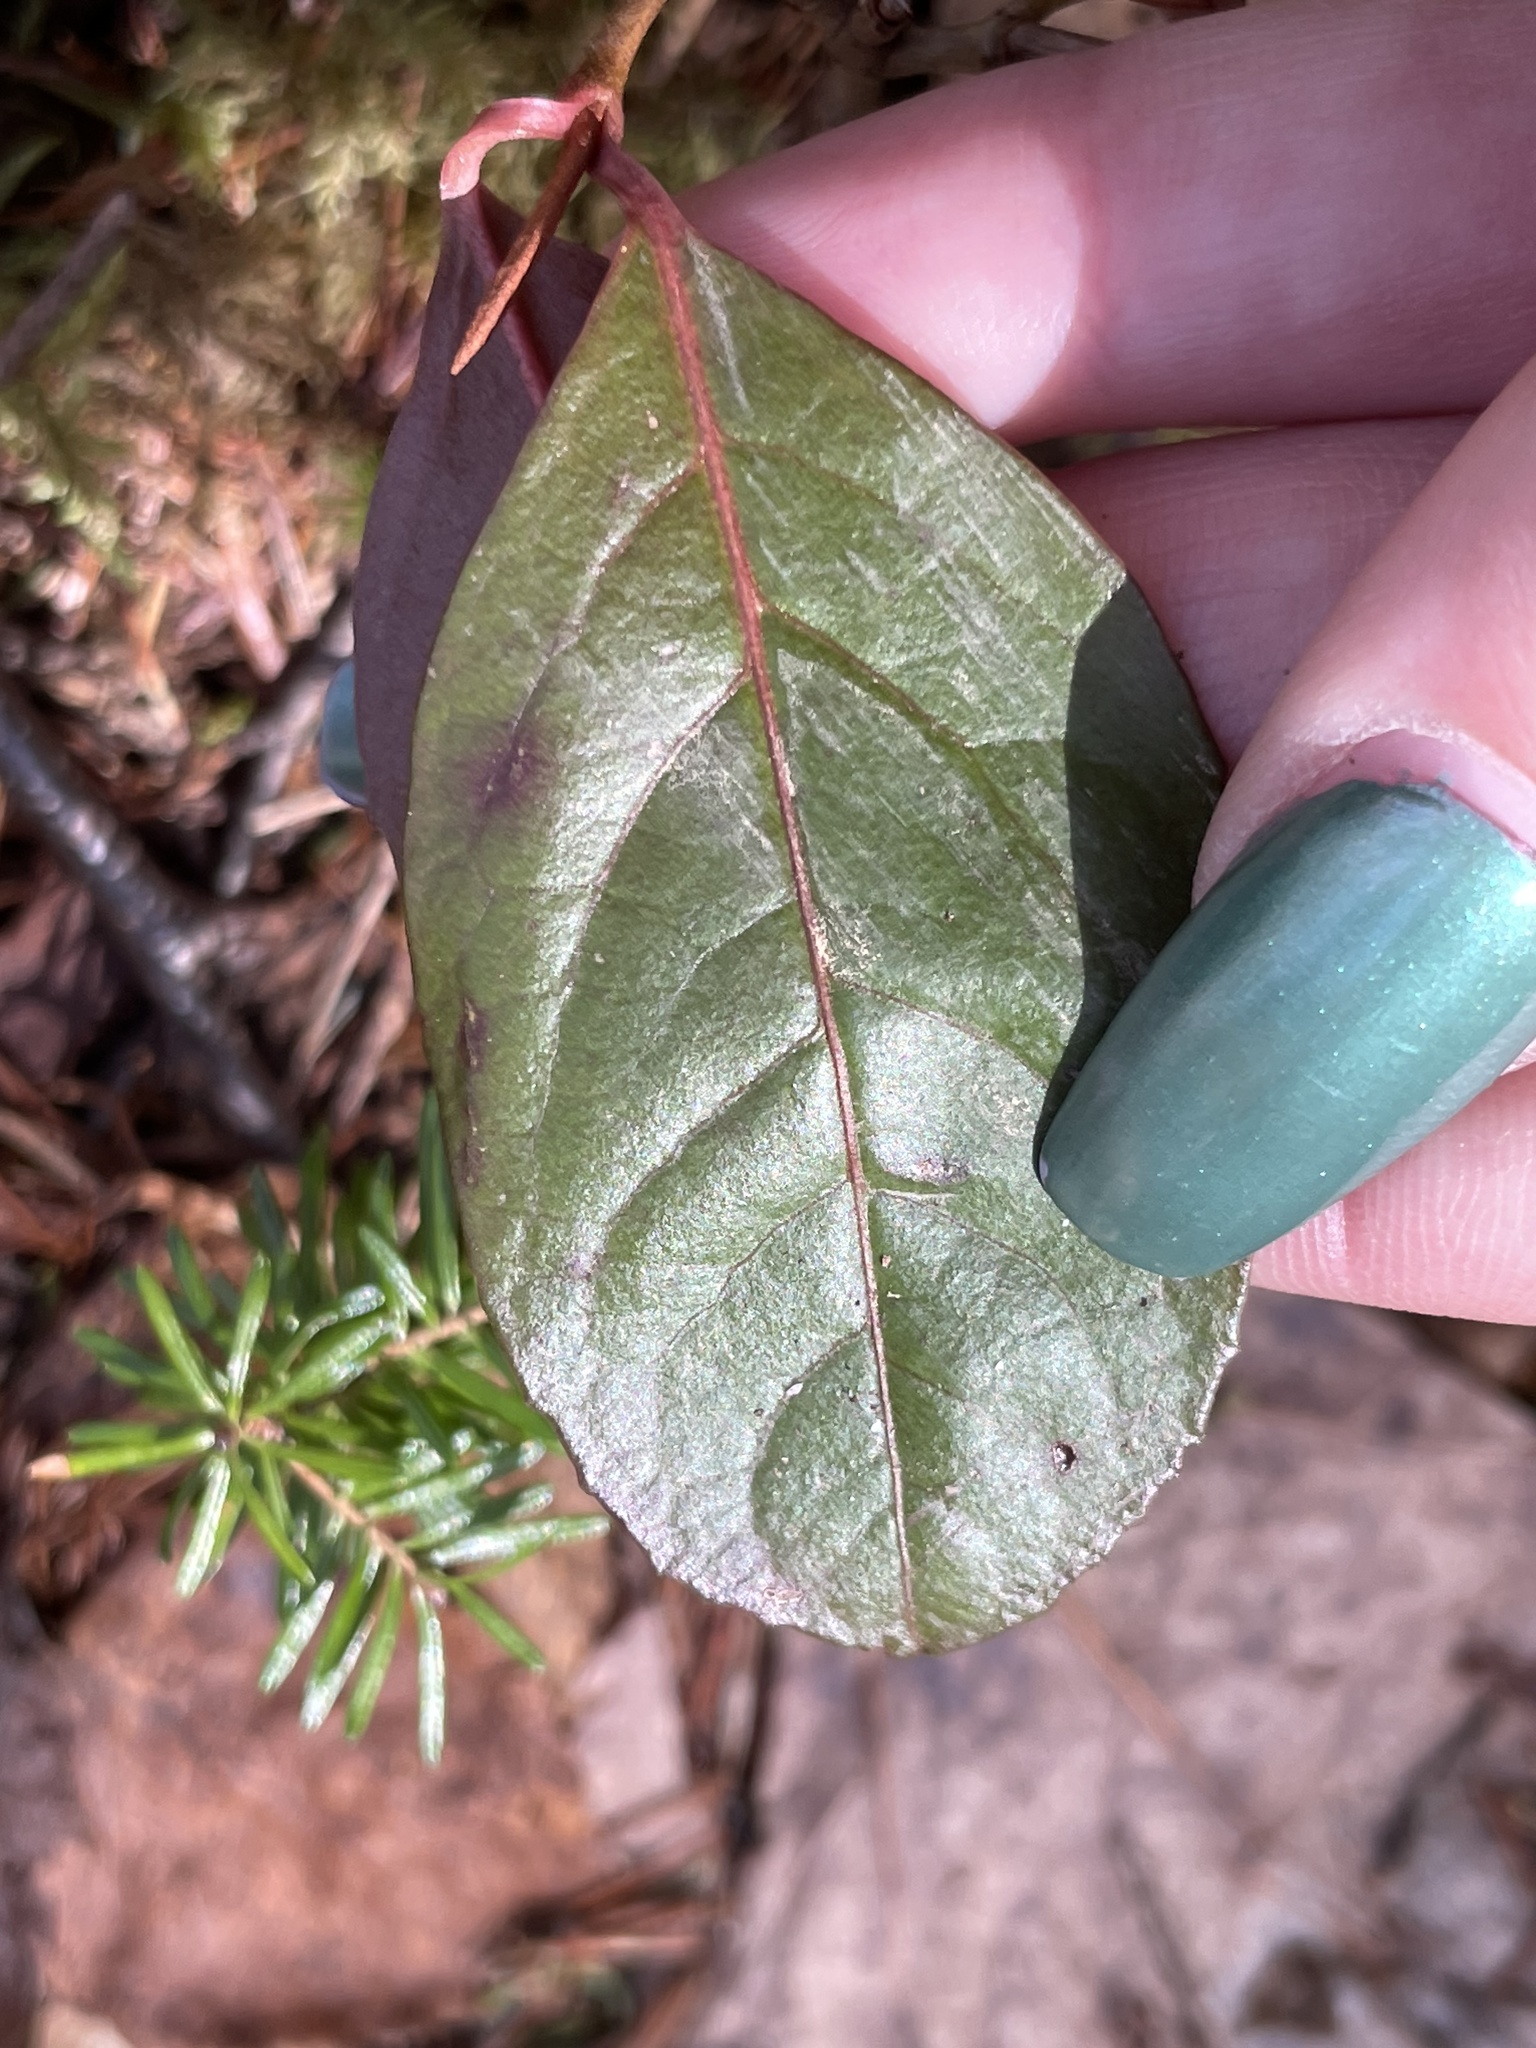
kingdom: Plantae
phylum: Tracheophyta
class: Magnoliopsida
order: Dipsacales
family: Viburnaceae
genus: Viburnum
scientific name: Viburnum cassinoides
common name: Swamp haw
